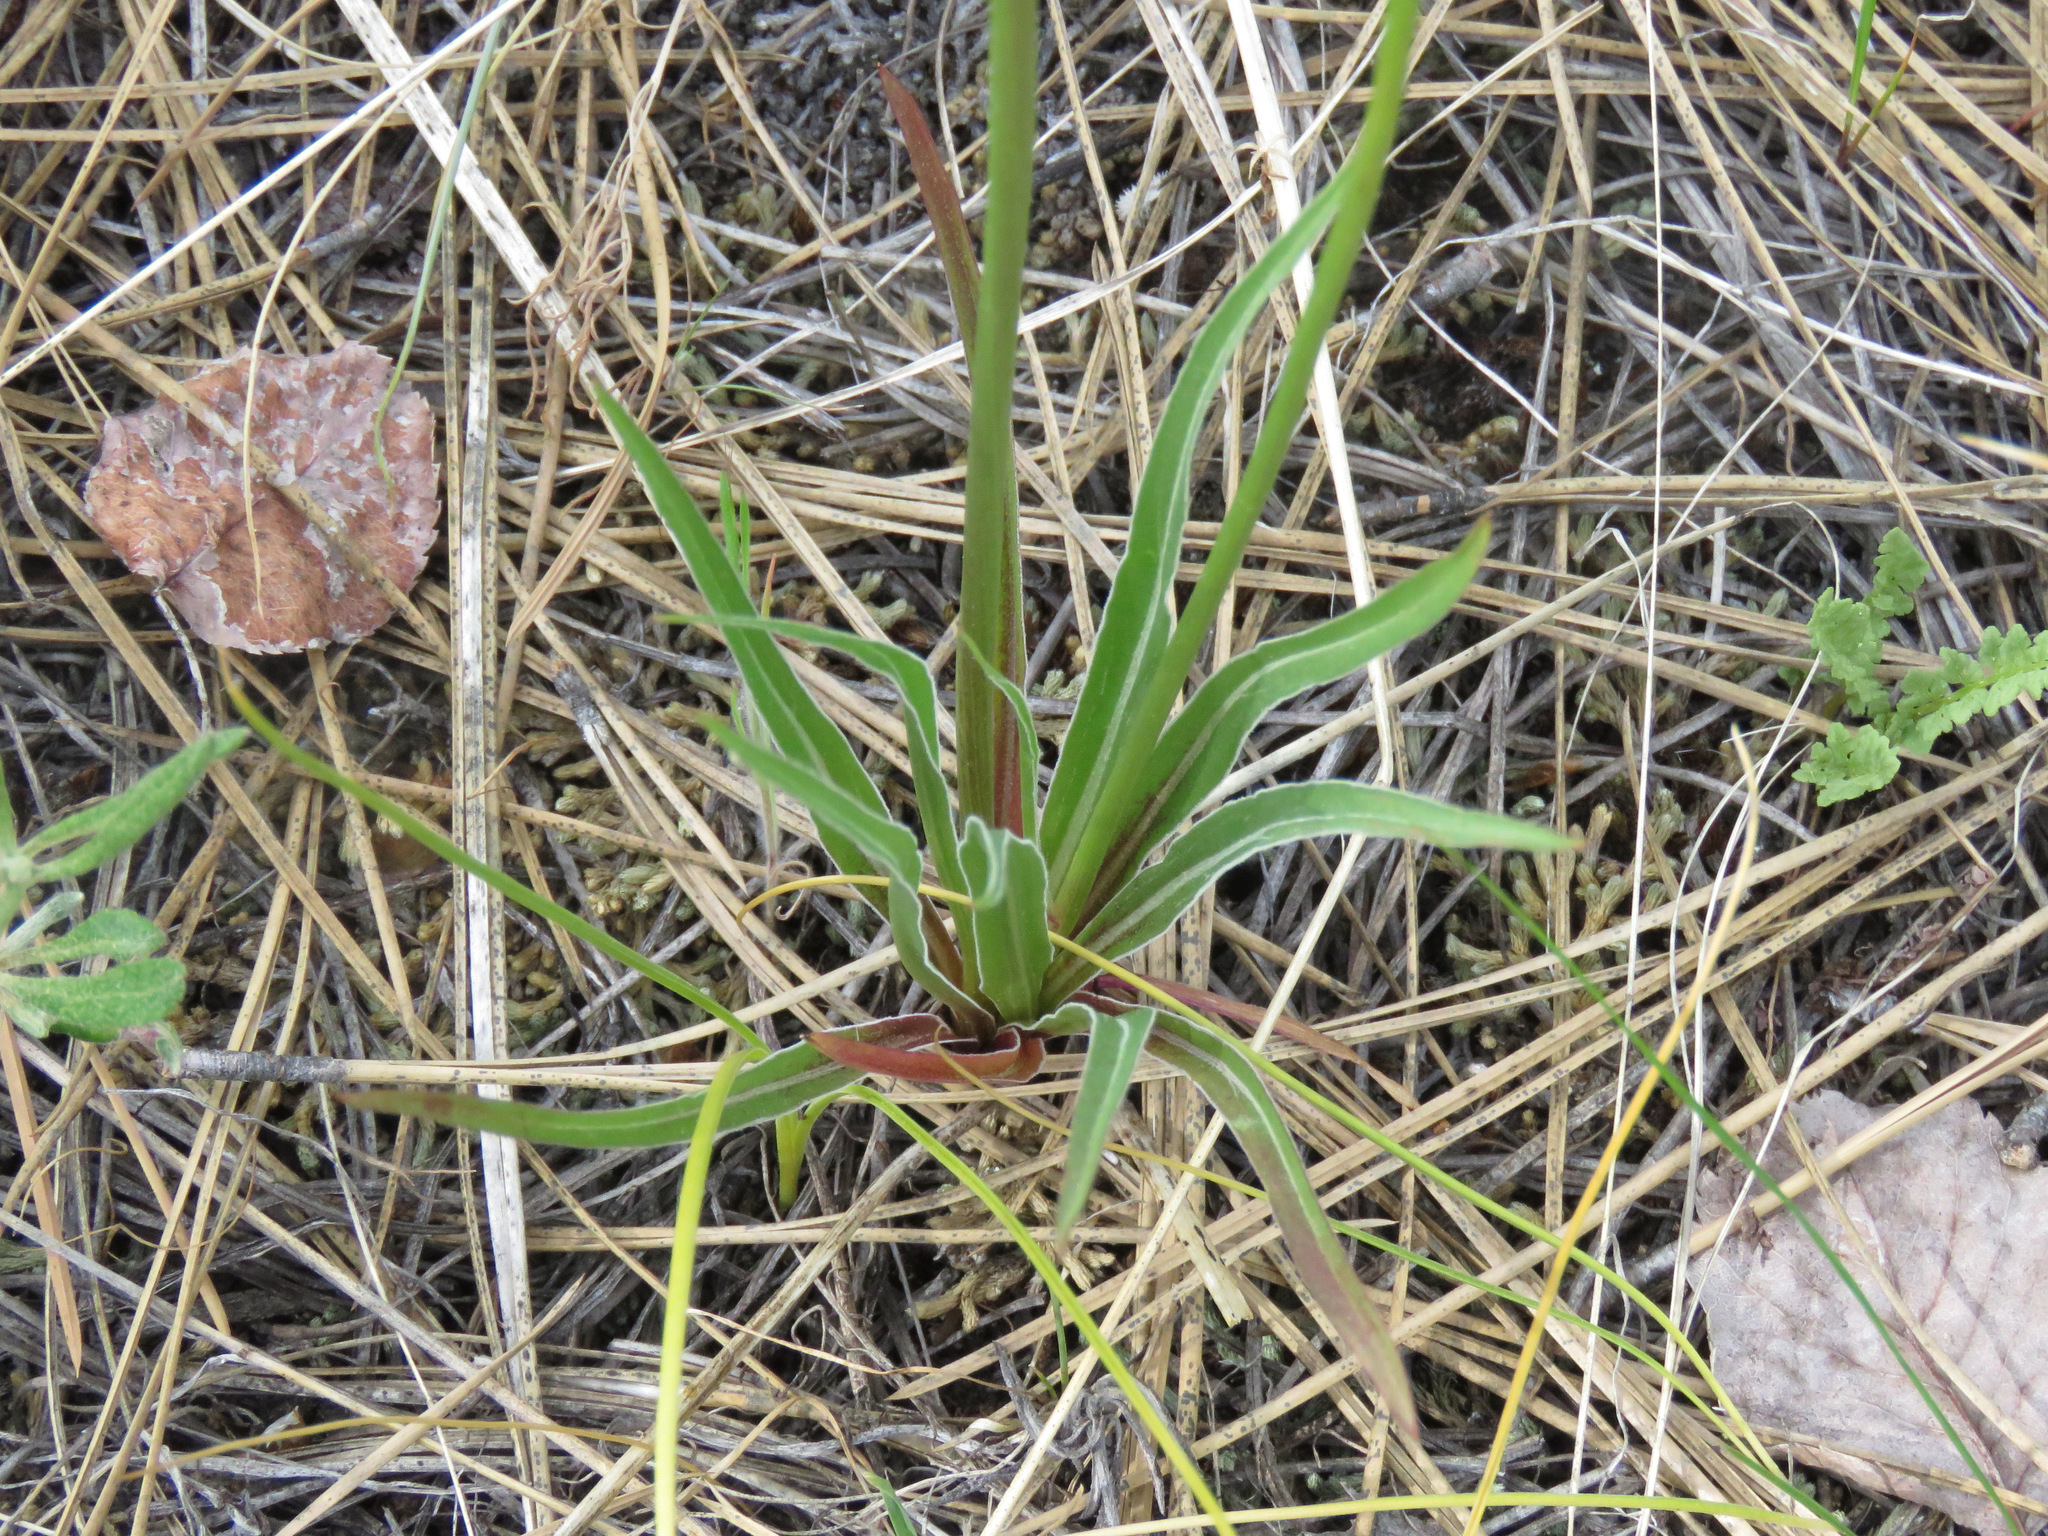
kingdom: Plantae
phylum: Tracheophyta
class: Magnoliopsida
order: Asterales
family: Asteraceae
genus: Microseris
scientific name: Microseris troximoides
